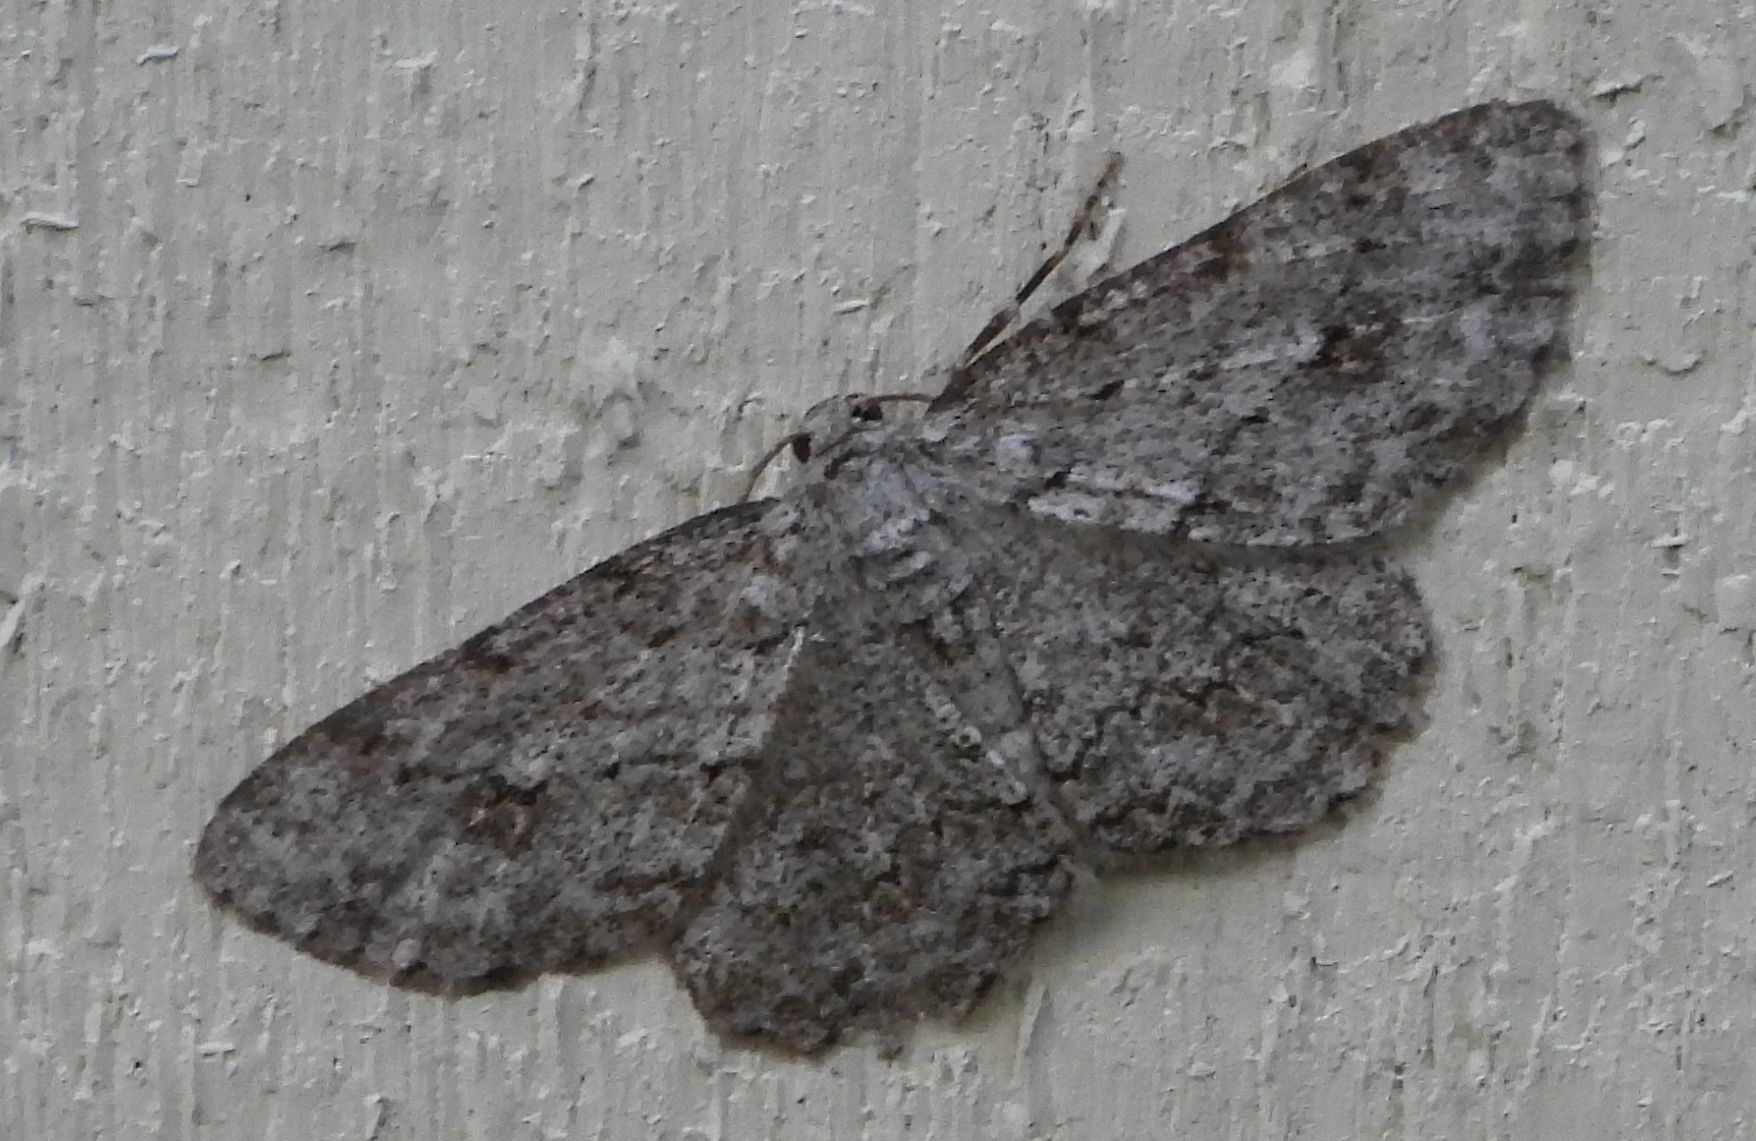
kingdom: Animalia
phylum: Arthropoda
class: Insecta
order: Lepidoptera
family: Geometridae
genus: Ectropis
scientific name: Ectropis crepuscularia
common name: Engrailed
